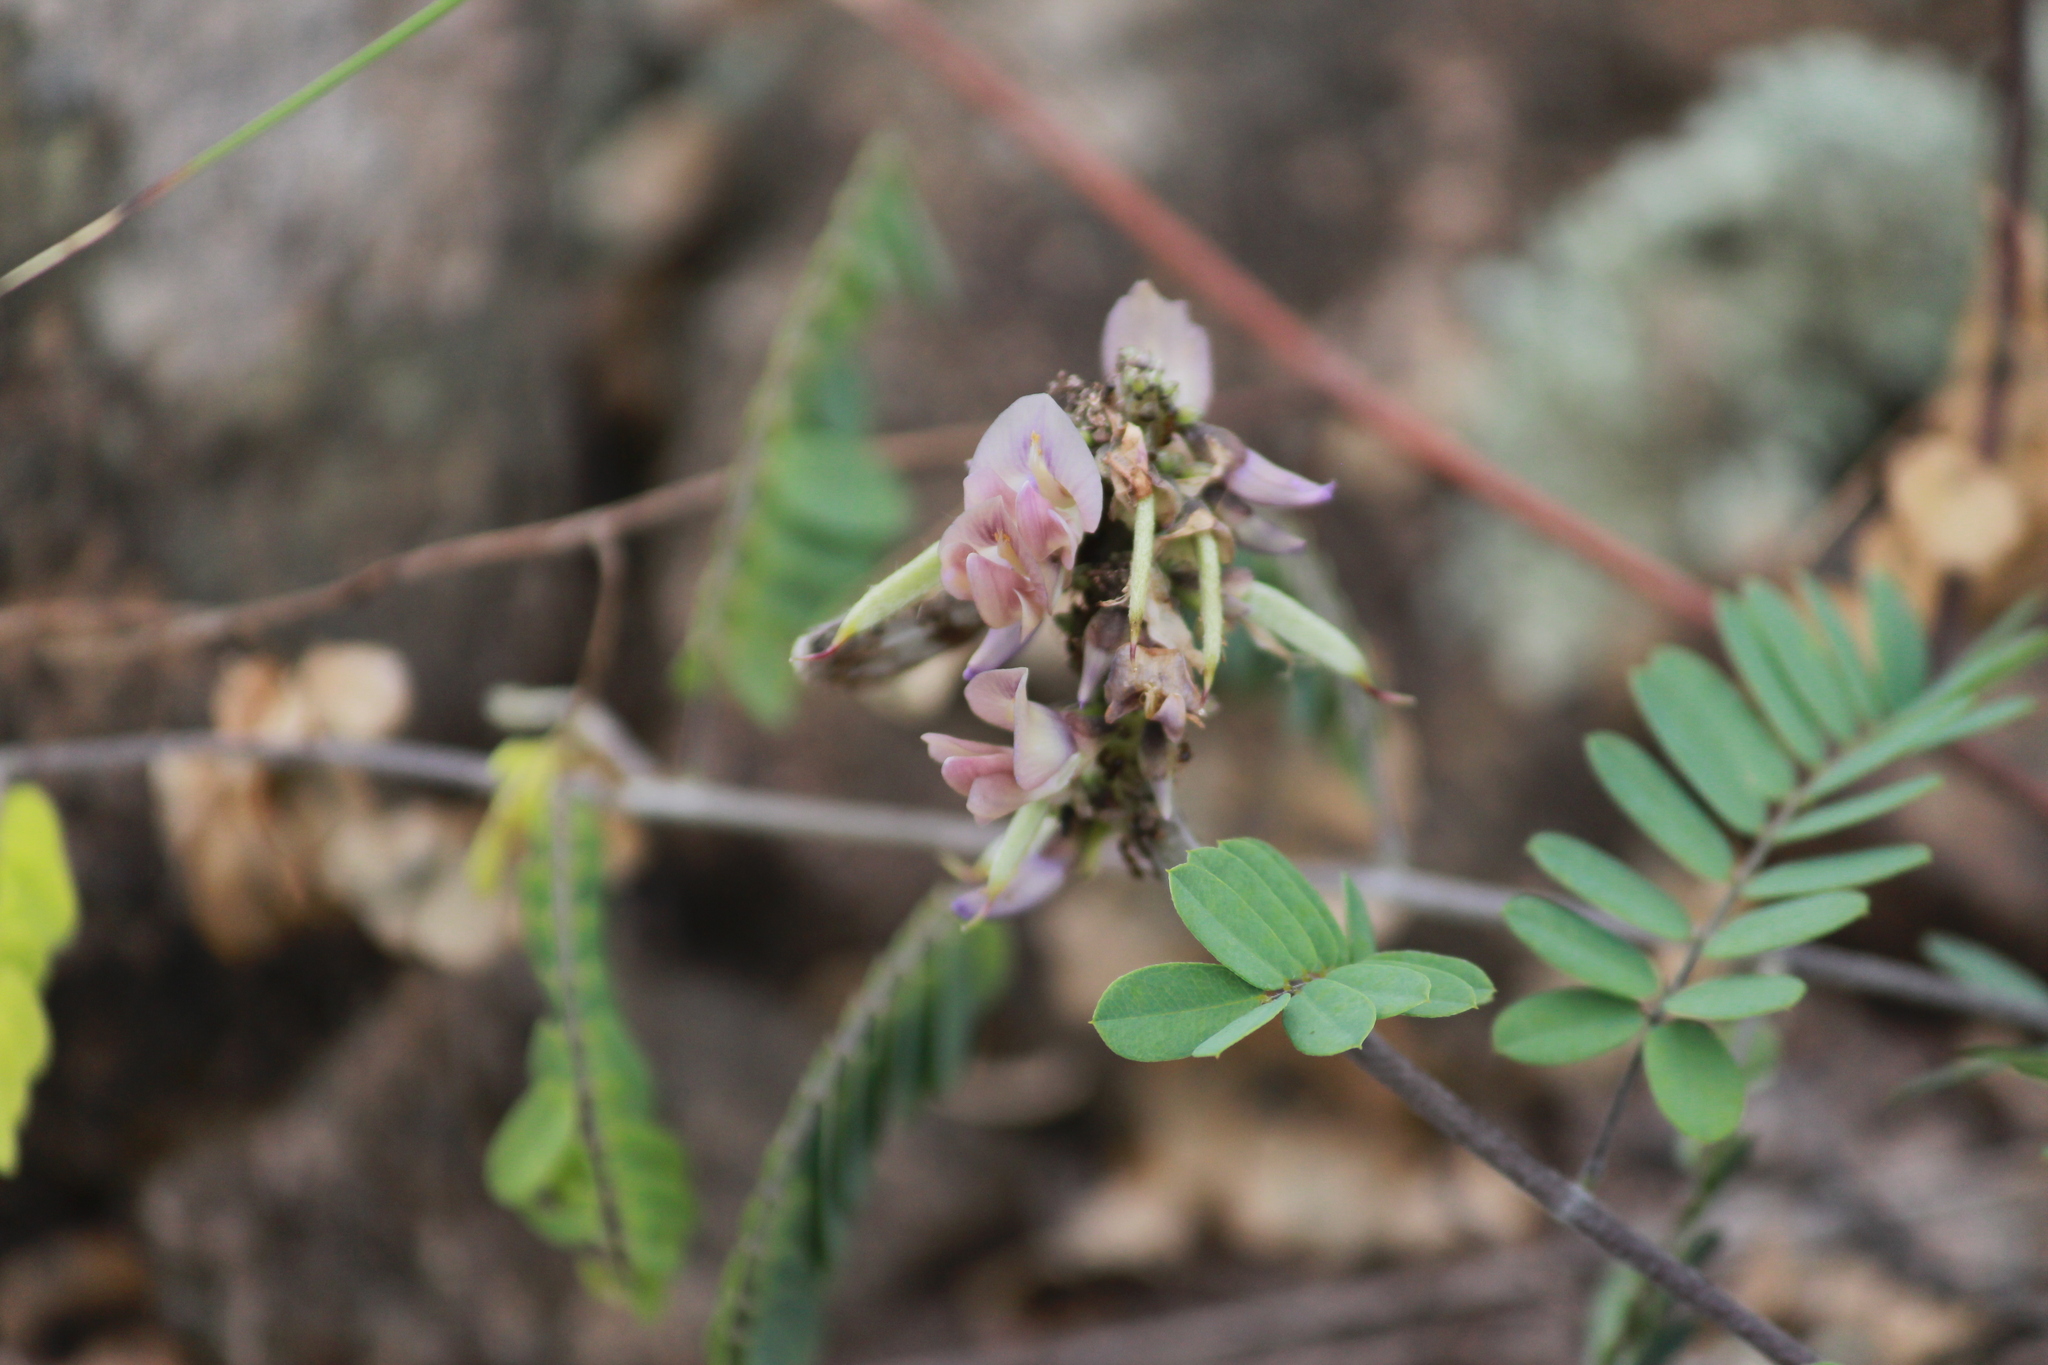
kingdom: Plantae
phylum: Tracheophyta
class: Magnoliopsida
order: Fabales
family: Fabaceae
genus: Abrus
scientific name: Abrus laevigatus
